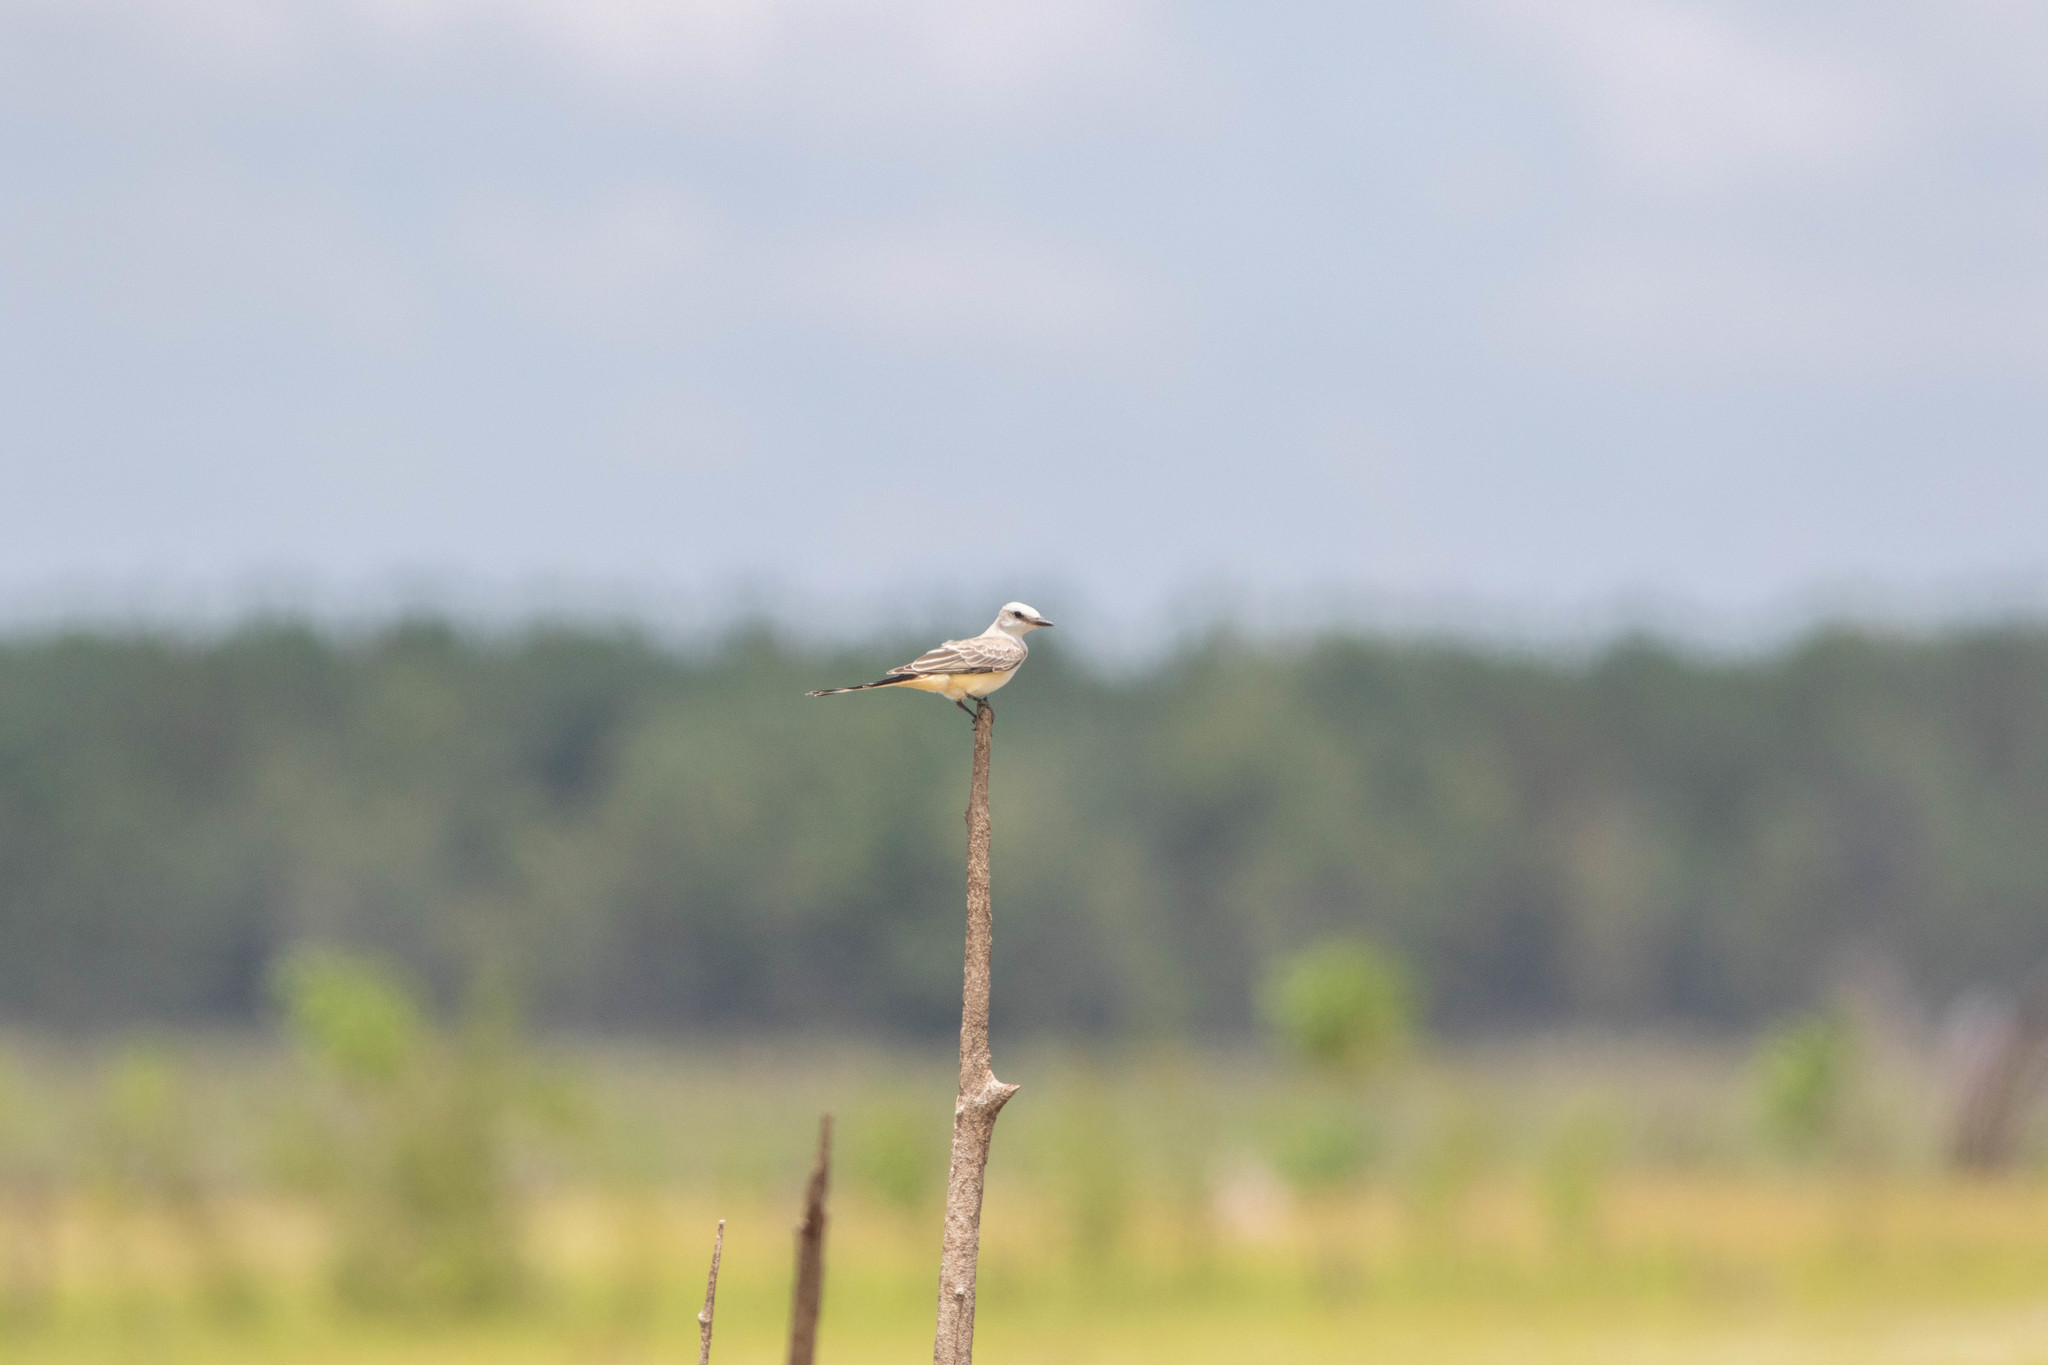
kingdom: Animalia
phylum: Chordata
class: Aves
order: Passeriformes
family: Tyrannidae
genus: Tyrannus
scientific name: Tyrannus forficatus
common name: Scissor-tailed flycatcher
